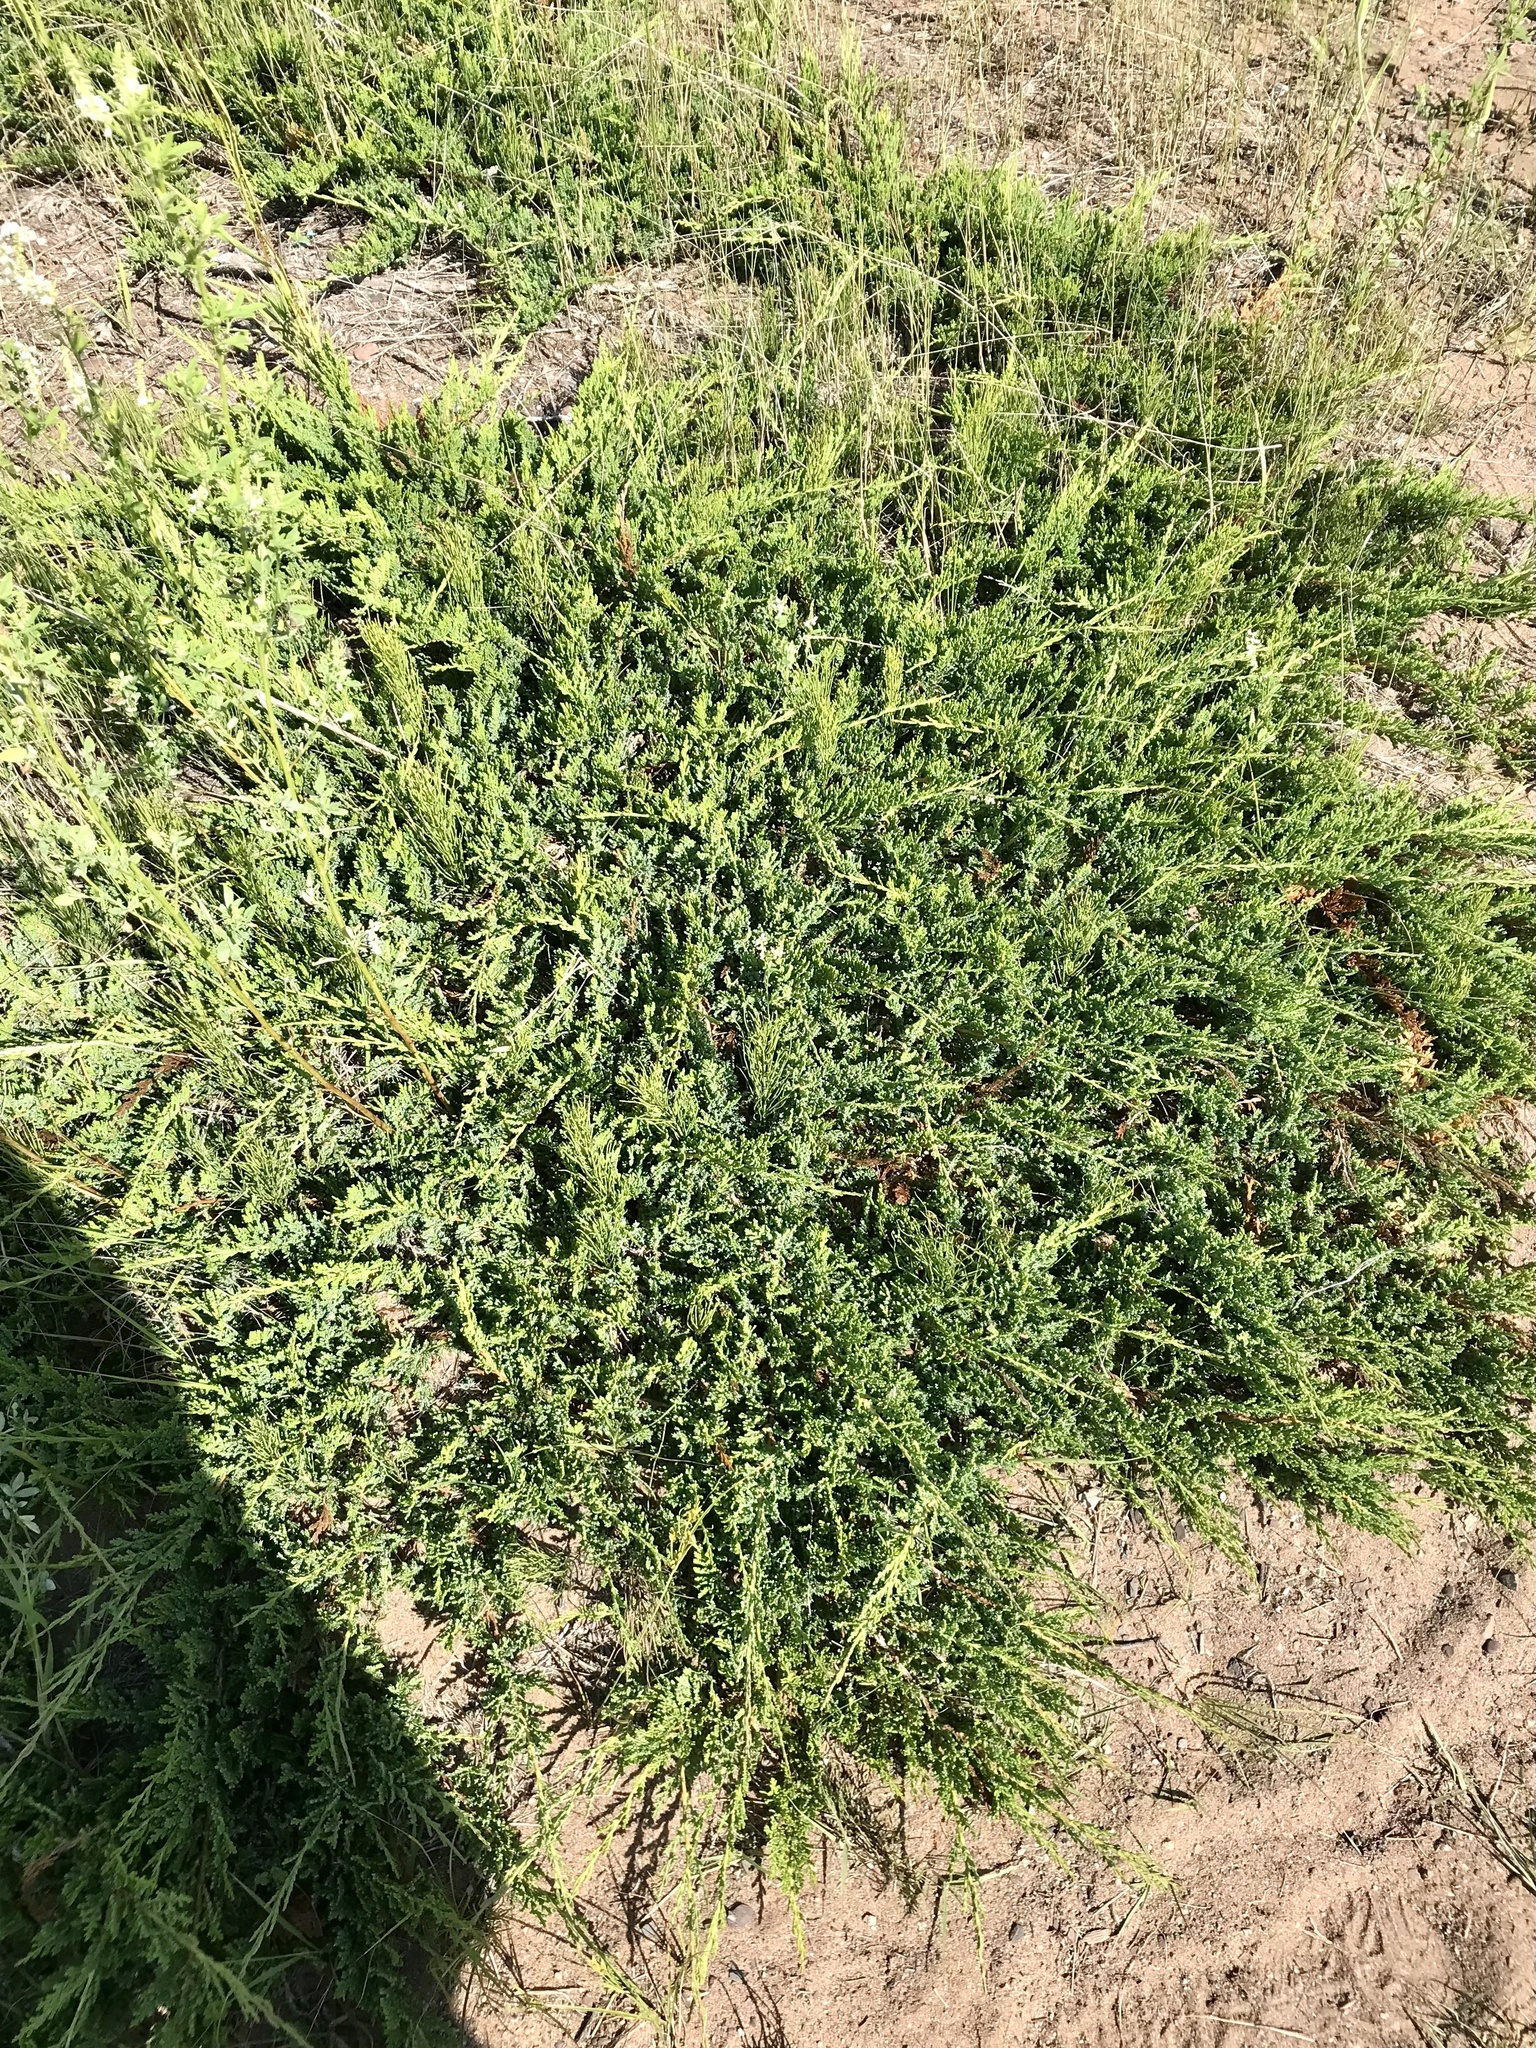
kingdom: Plantae
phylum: Tracheophyta
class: Pinopsida
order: Pinales
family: Cupressaceae
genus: Juniperus
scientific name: Juniperus horizontalis
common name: Creeping juniper
